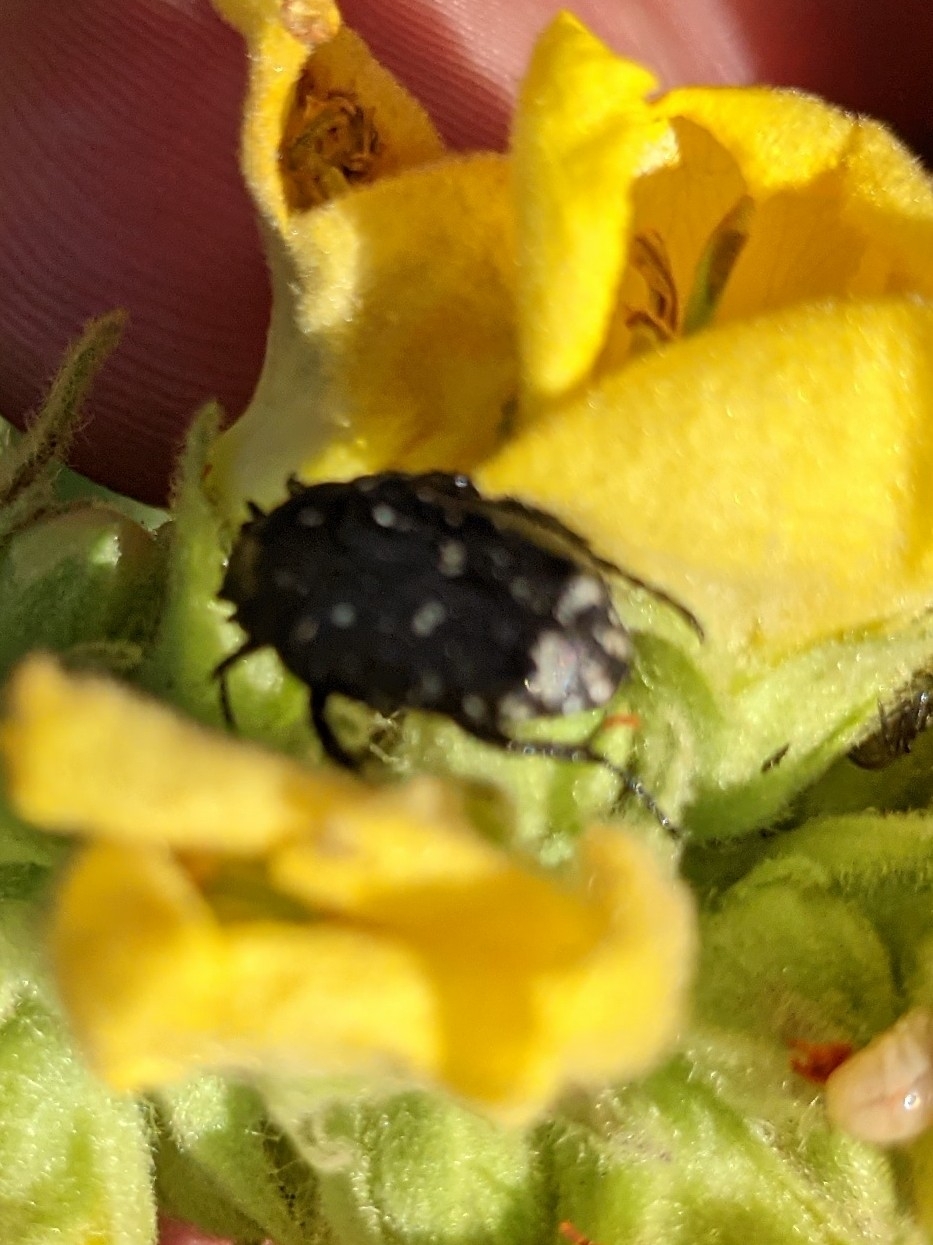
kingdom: Animalia
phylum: Arthropoda
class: Insecta
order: Coleoptera
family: Scarabaeidae
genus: Oxythyrea
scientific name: Oxythyrea funesta
